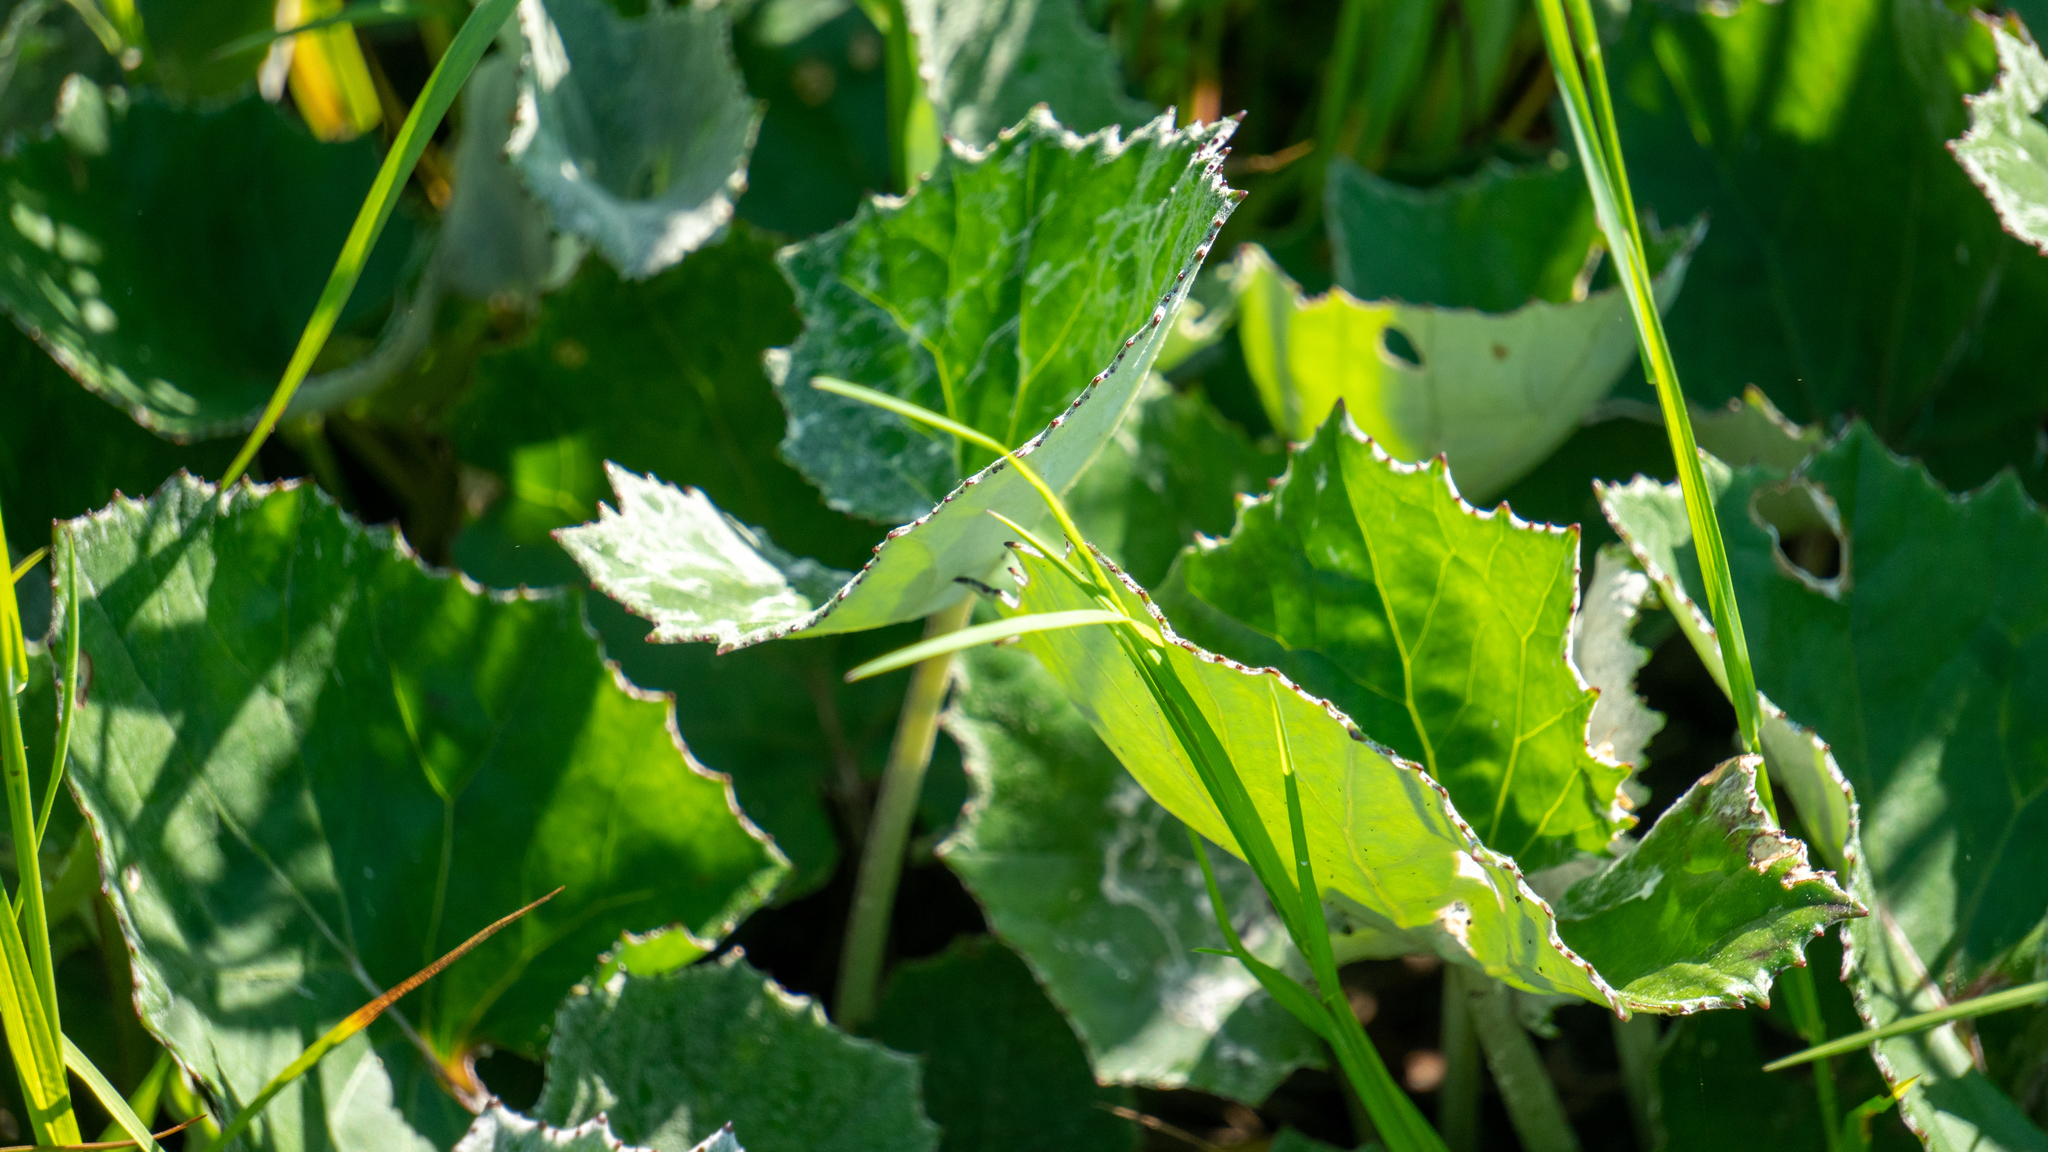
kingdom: Plantae
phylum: Tracheophyta
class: Magnoliopsida
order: Asterales
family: Asteraceae
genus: Tussilago
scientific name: Tussilago farfara
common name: Coltsfoot
